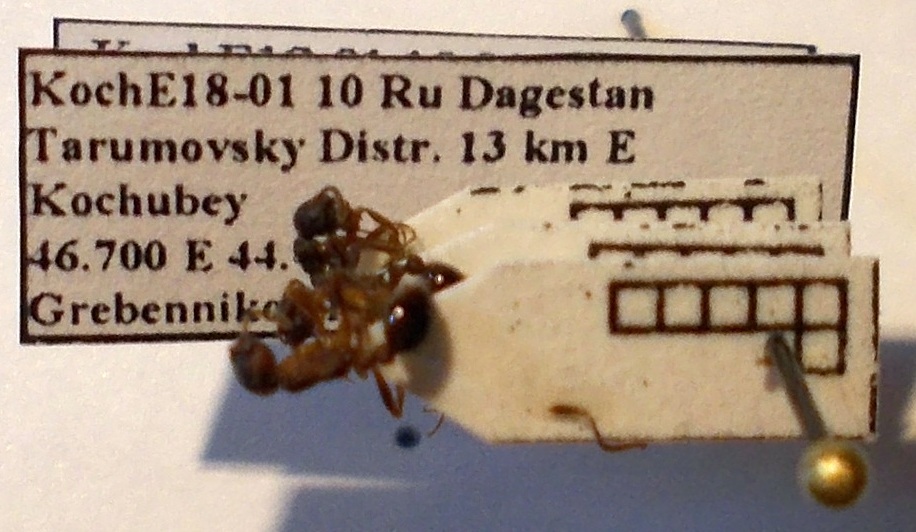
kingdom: Animalia
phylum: Arthropoda
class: Insecta
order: Hymenoptera
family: Formicidae
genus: Myrmica
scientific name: Myrmica bergi
